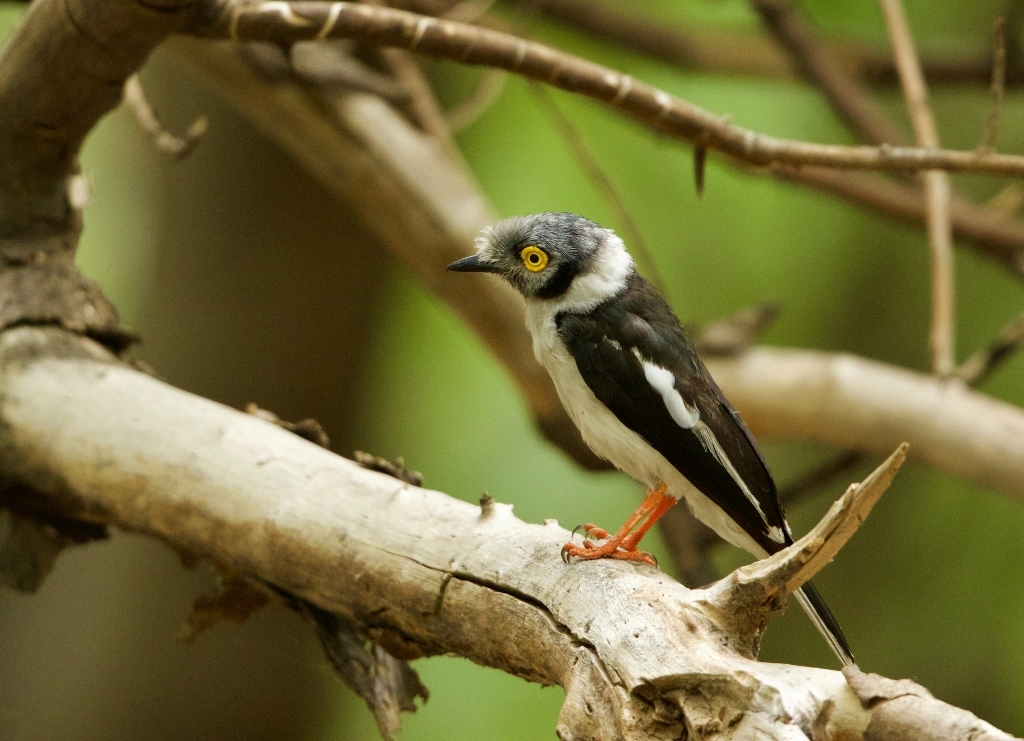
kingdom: Animalia
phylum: Chordata
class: Aves
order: Passeriformes
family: Prionopidae
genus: Prionops
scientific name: Prionops plumatus
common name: White-crested helmetshrike
